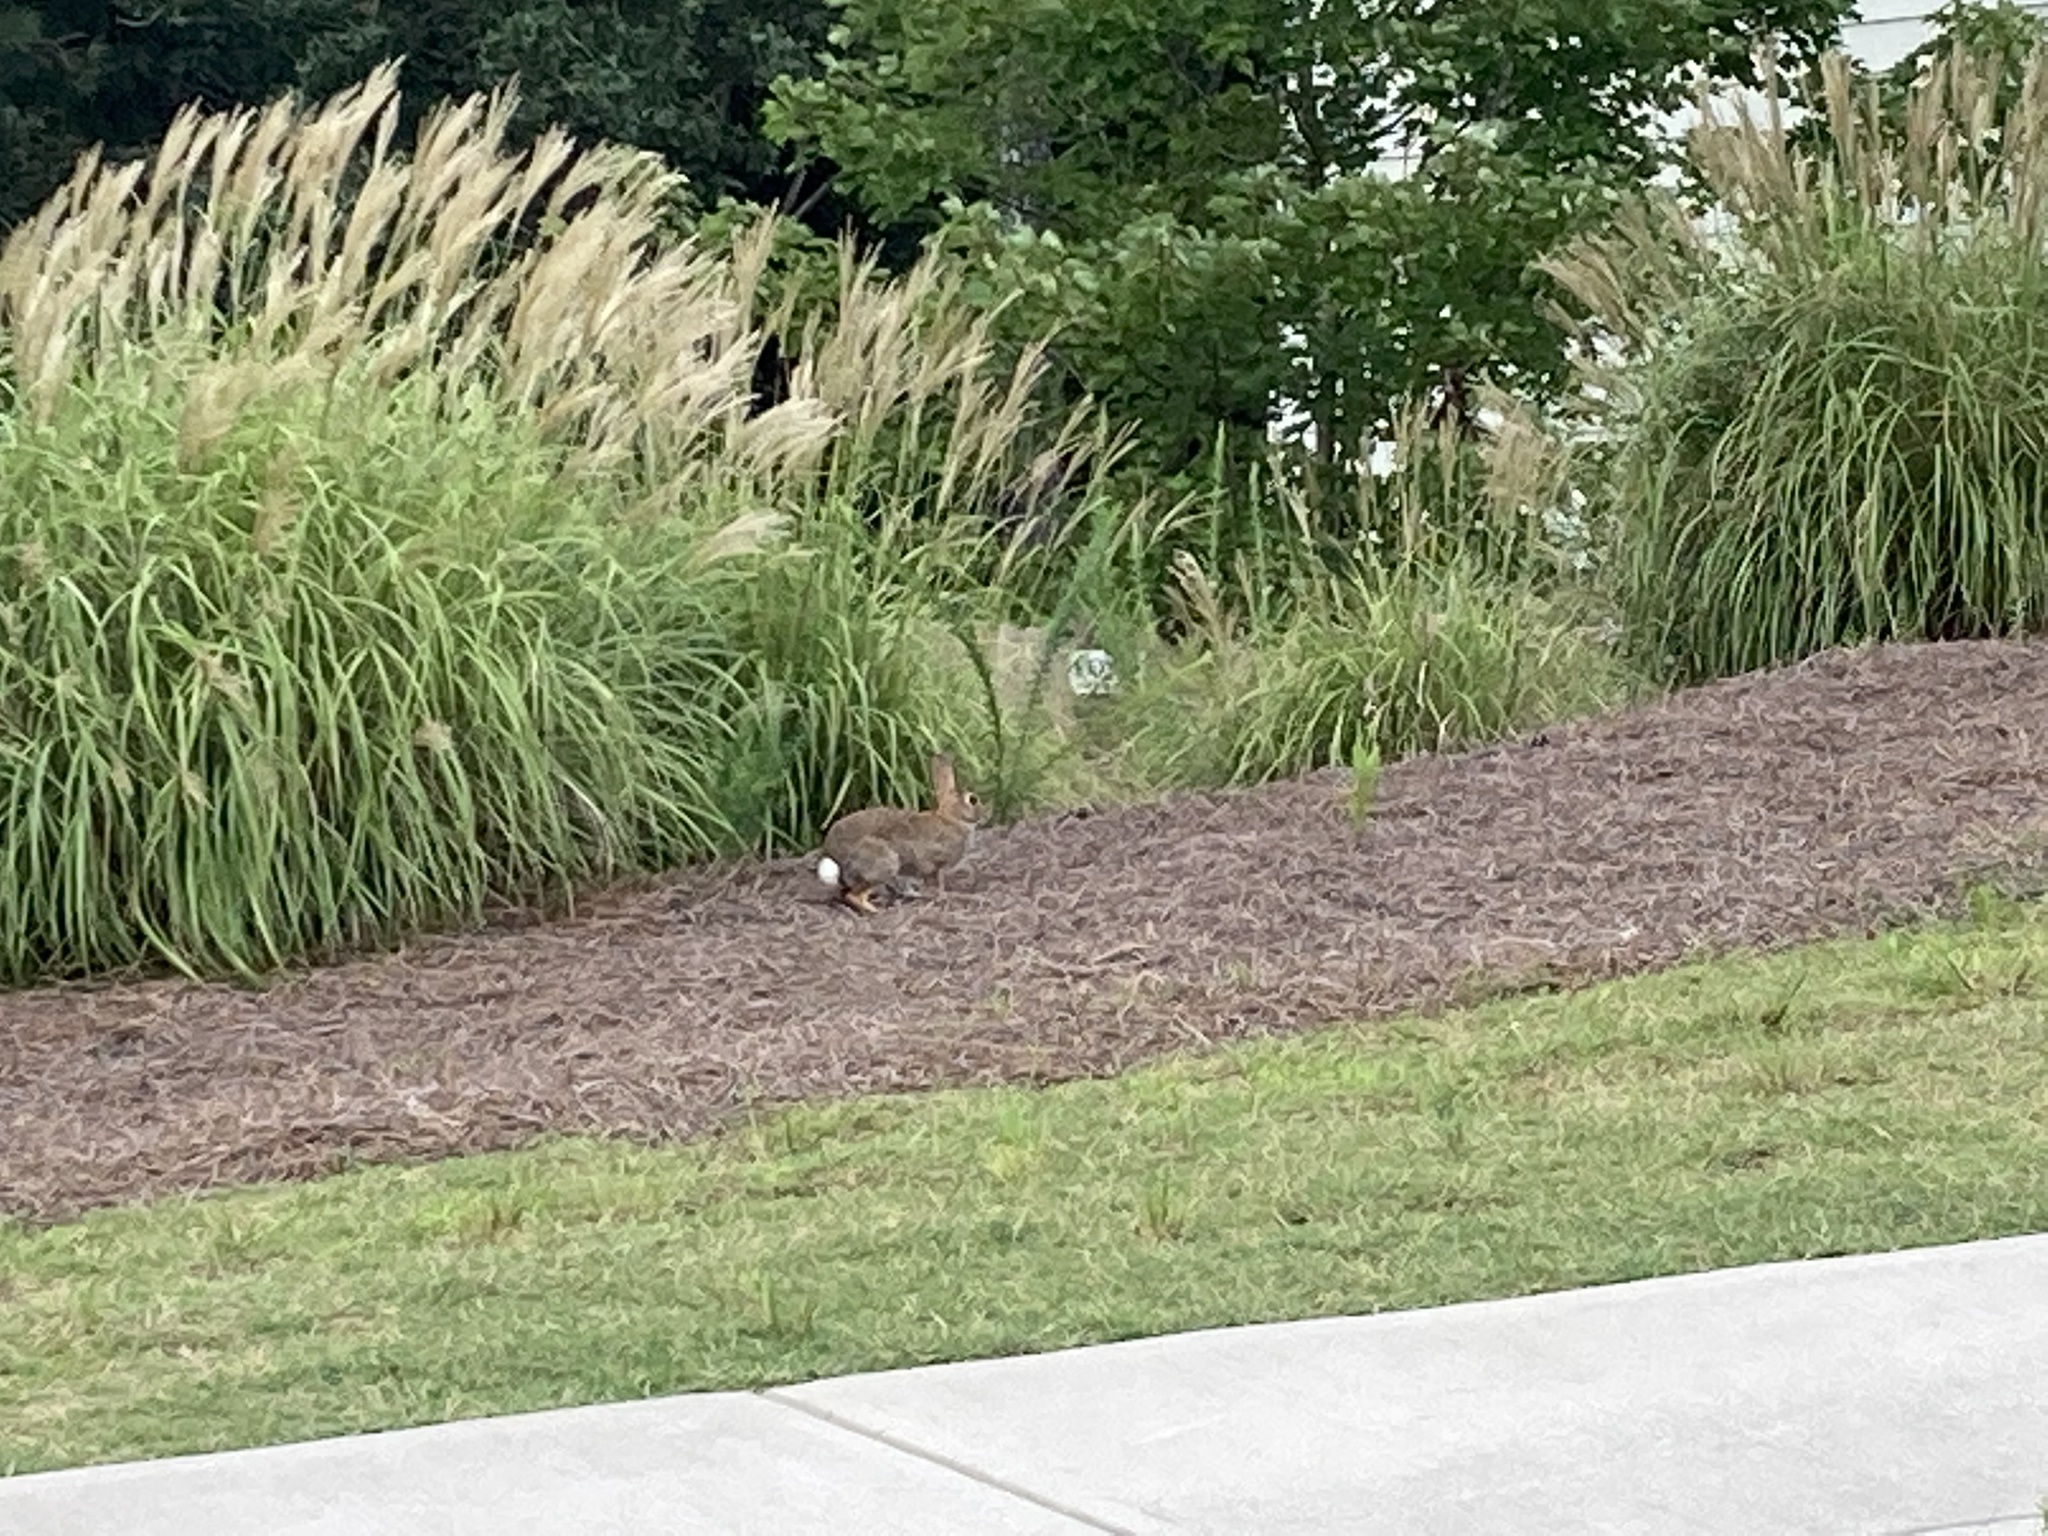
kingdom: Animalia
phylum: Chordata
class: Mammalia
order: Lagomorpha
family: Leporidae
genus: Sylvilagus
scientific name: Sylvilagus floridanus
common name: Eastern cottontail
